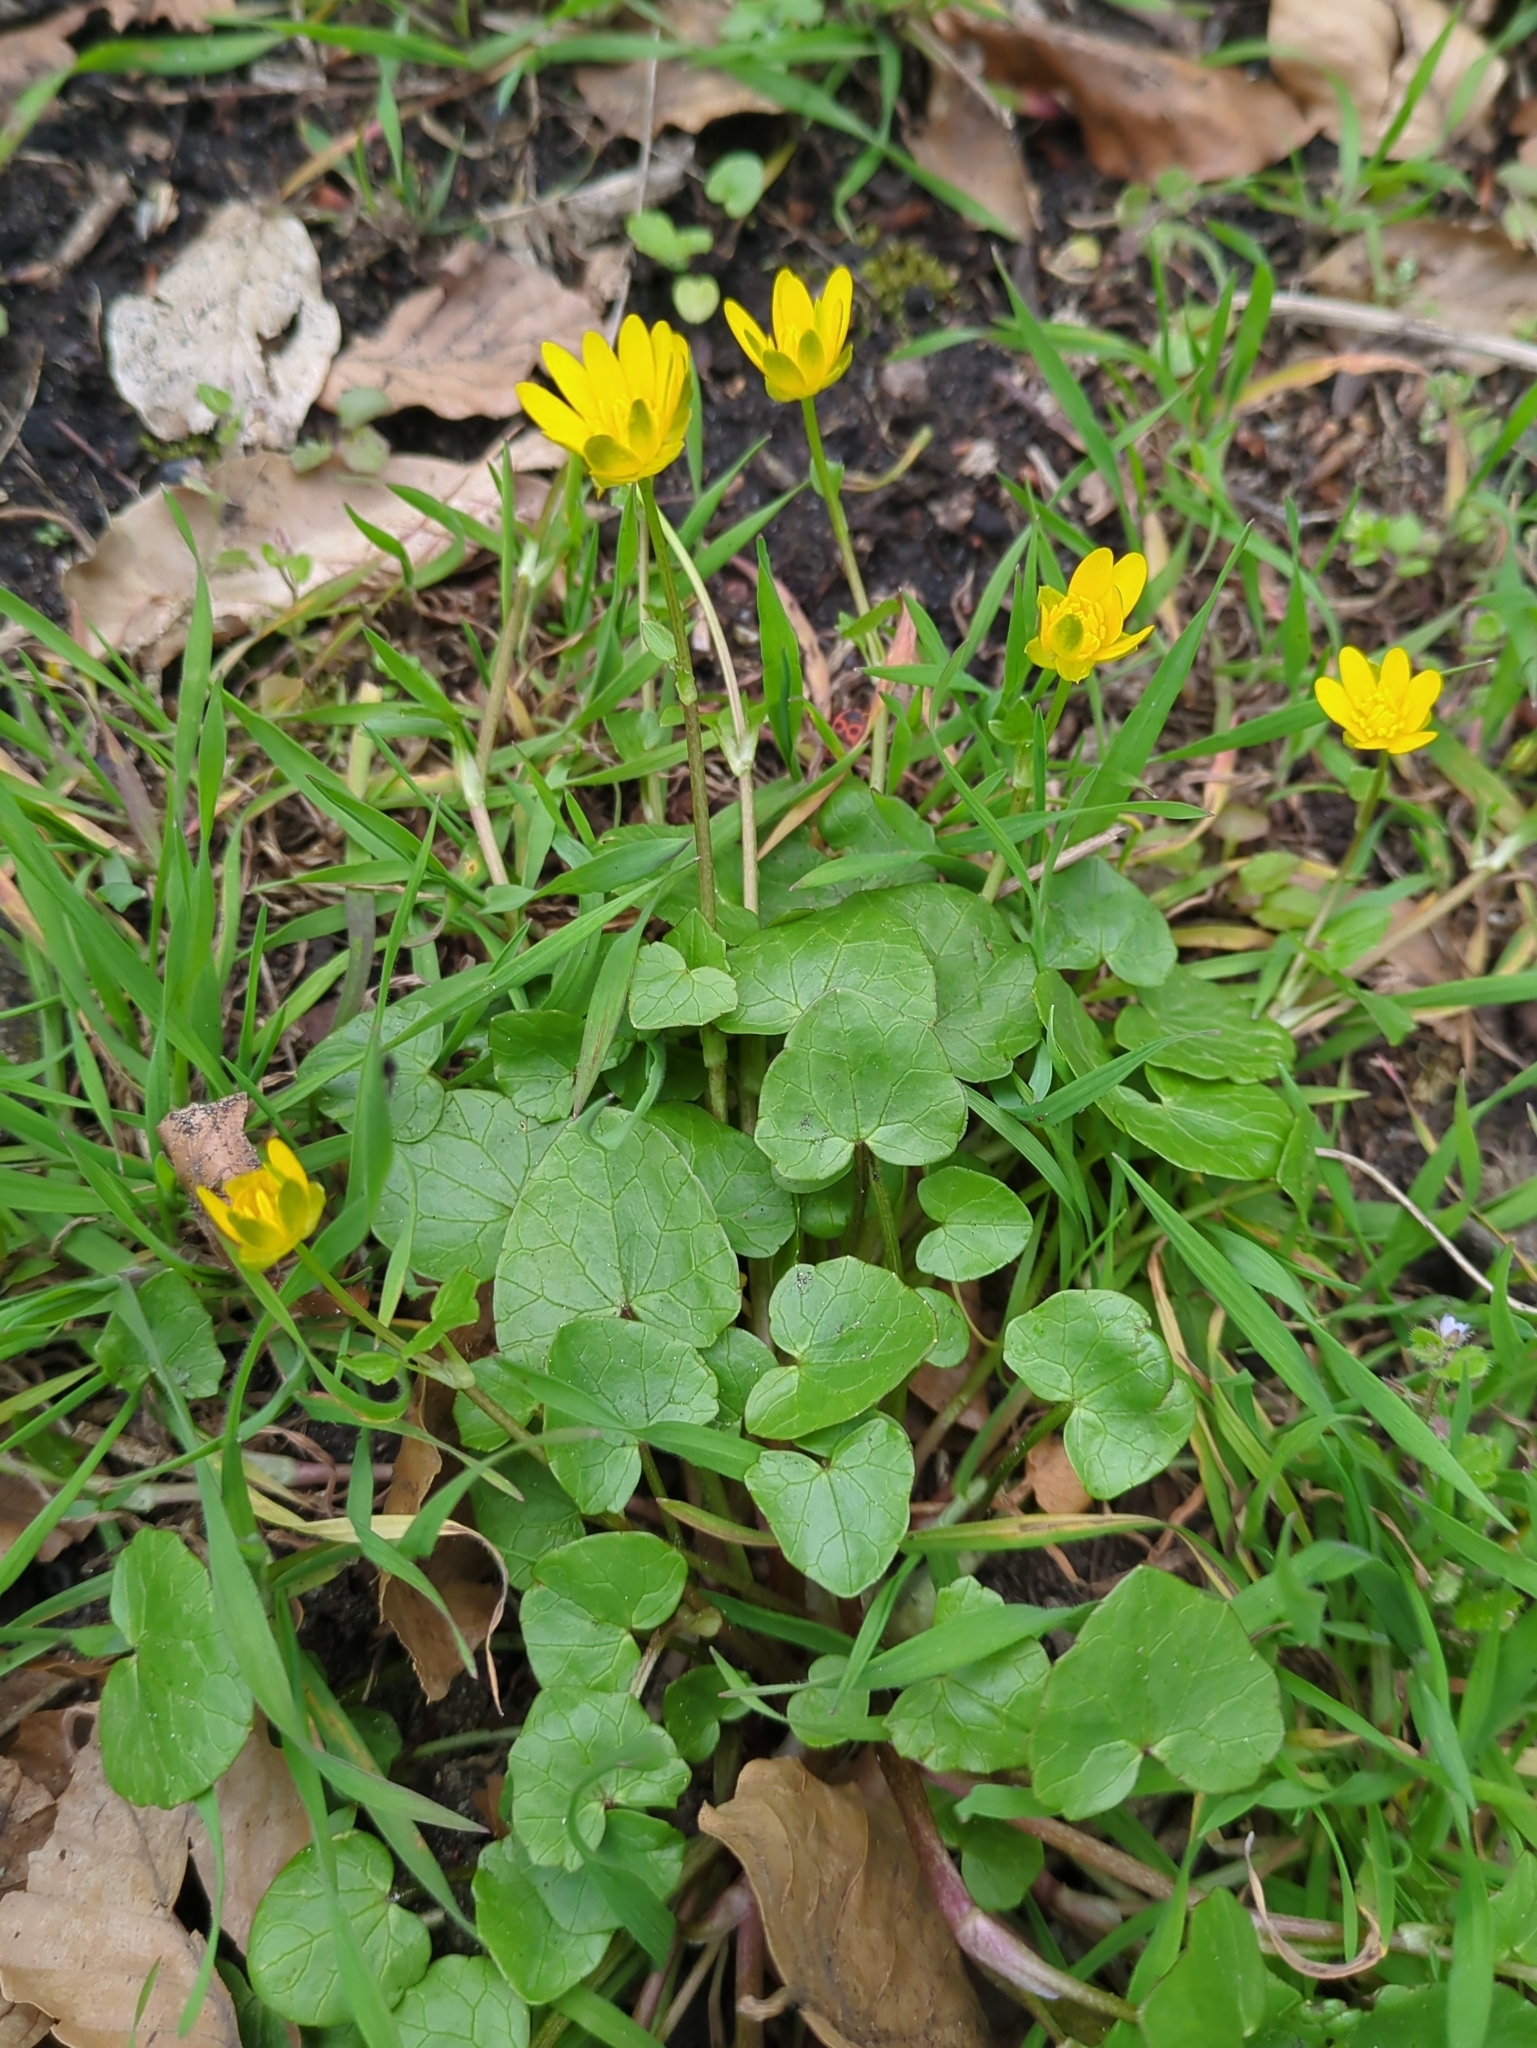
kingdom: Plantae
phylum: Tracheophyta
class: Magnoliopsida
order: Ranunculales
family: Ranunculaceae
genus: Ficaria
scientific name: Ficaria verna
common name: Lesser celandine
